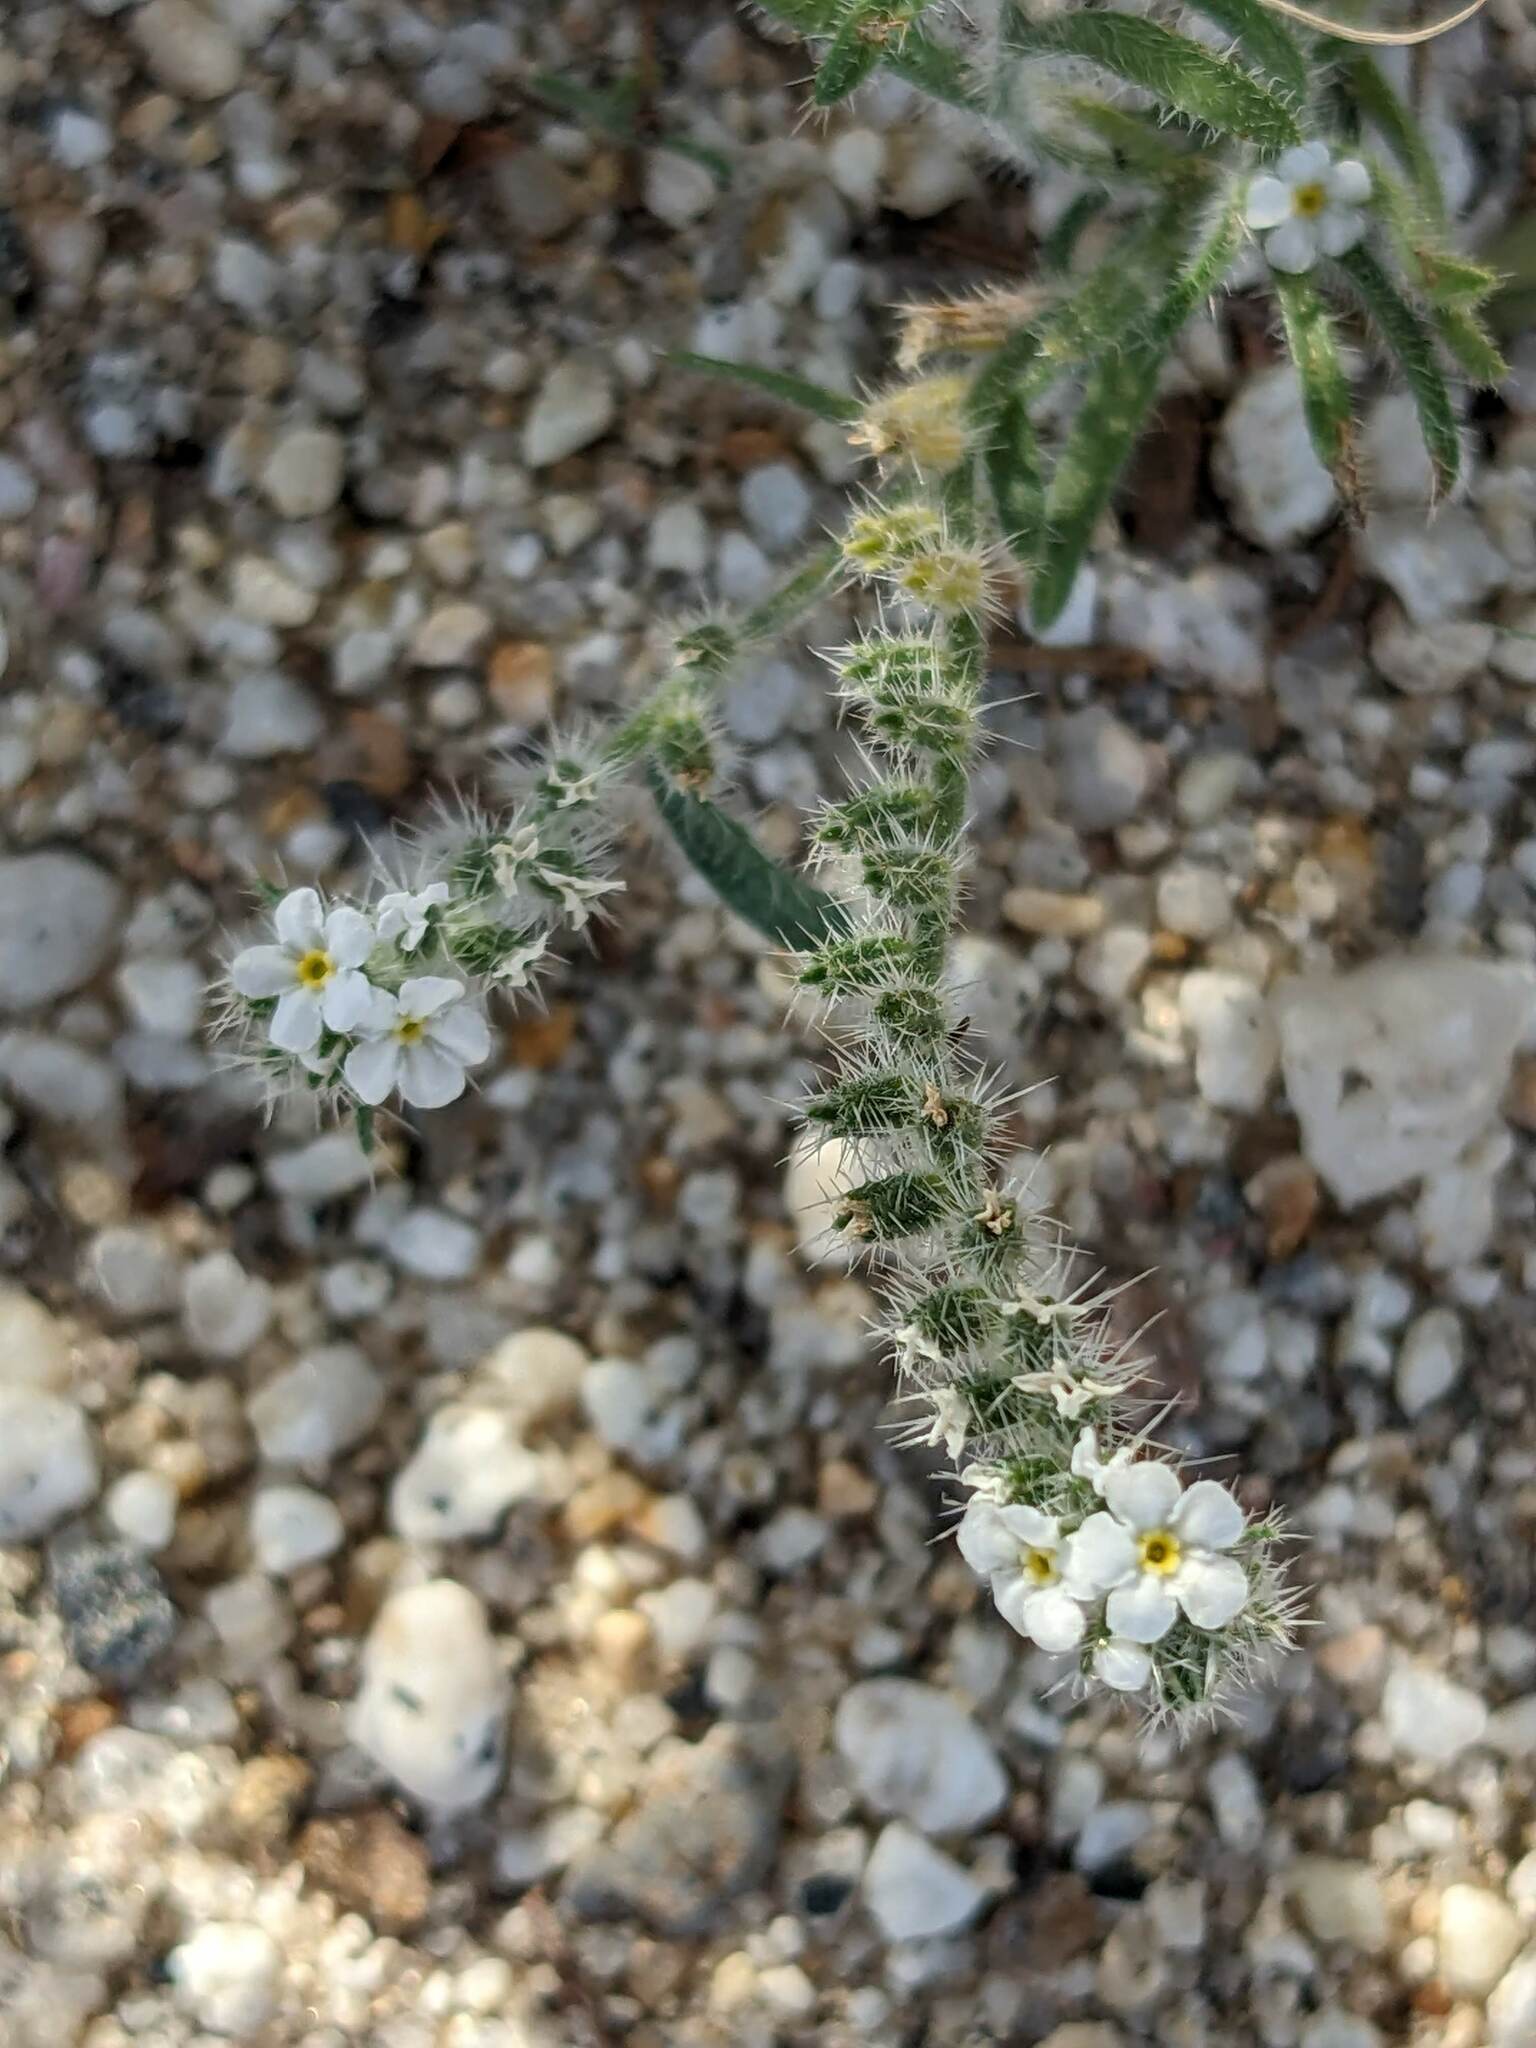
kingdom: Plantae
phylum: Tracheophyta
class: Magnoliopsida
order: Boraginales
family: Boraginaceae
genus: Johnstonella
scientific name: Johnstonella angustifolia
